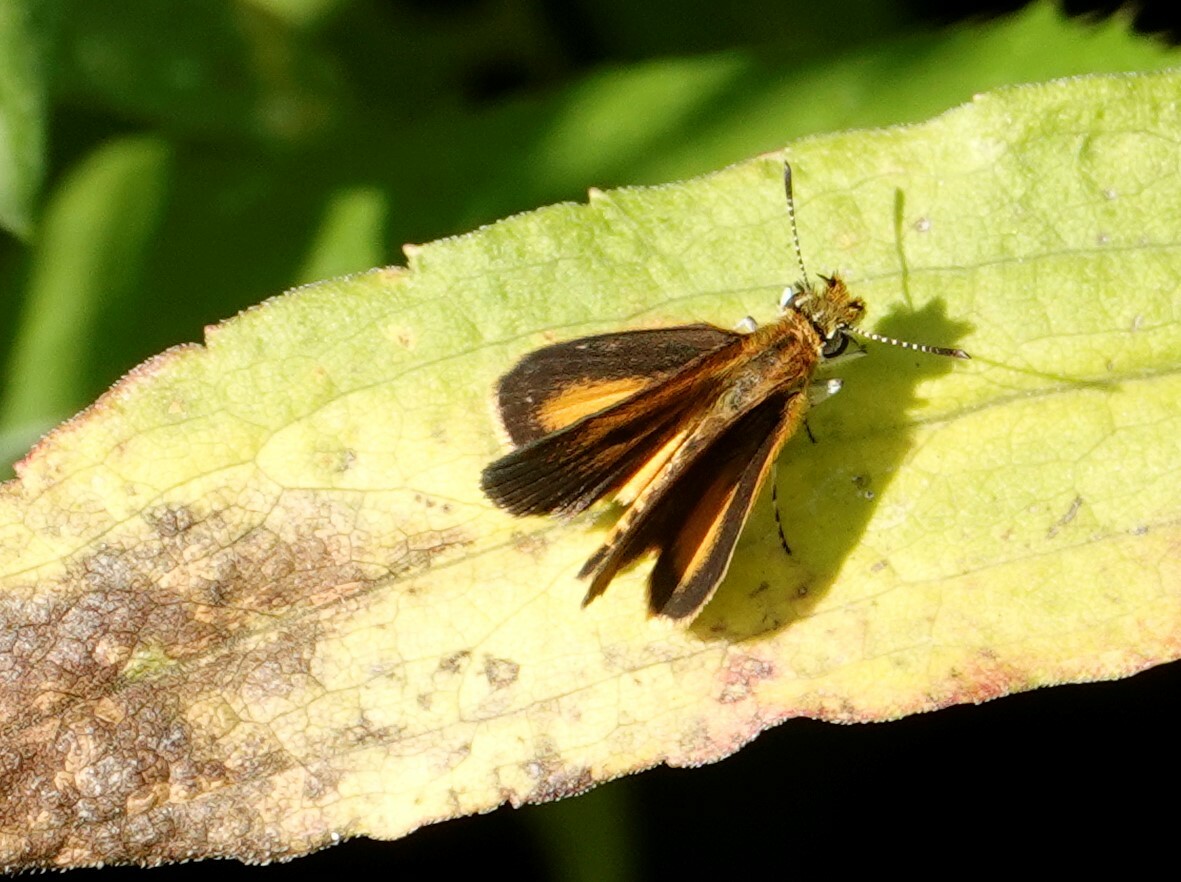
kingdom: Animalia
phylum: Arthropoda
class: Insecta
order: Lepidoptera
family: Hesperiidae
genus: Ancyloxypha
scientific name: Ancyloxypha numitor
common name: Least skipper
